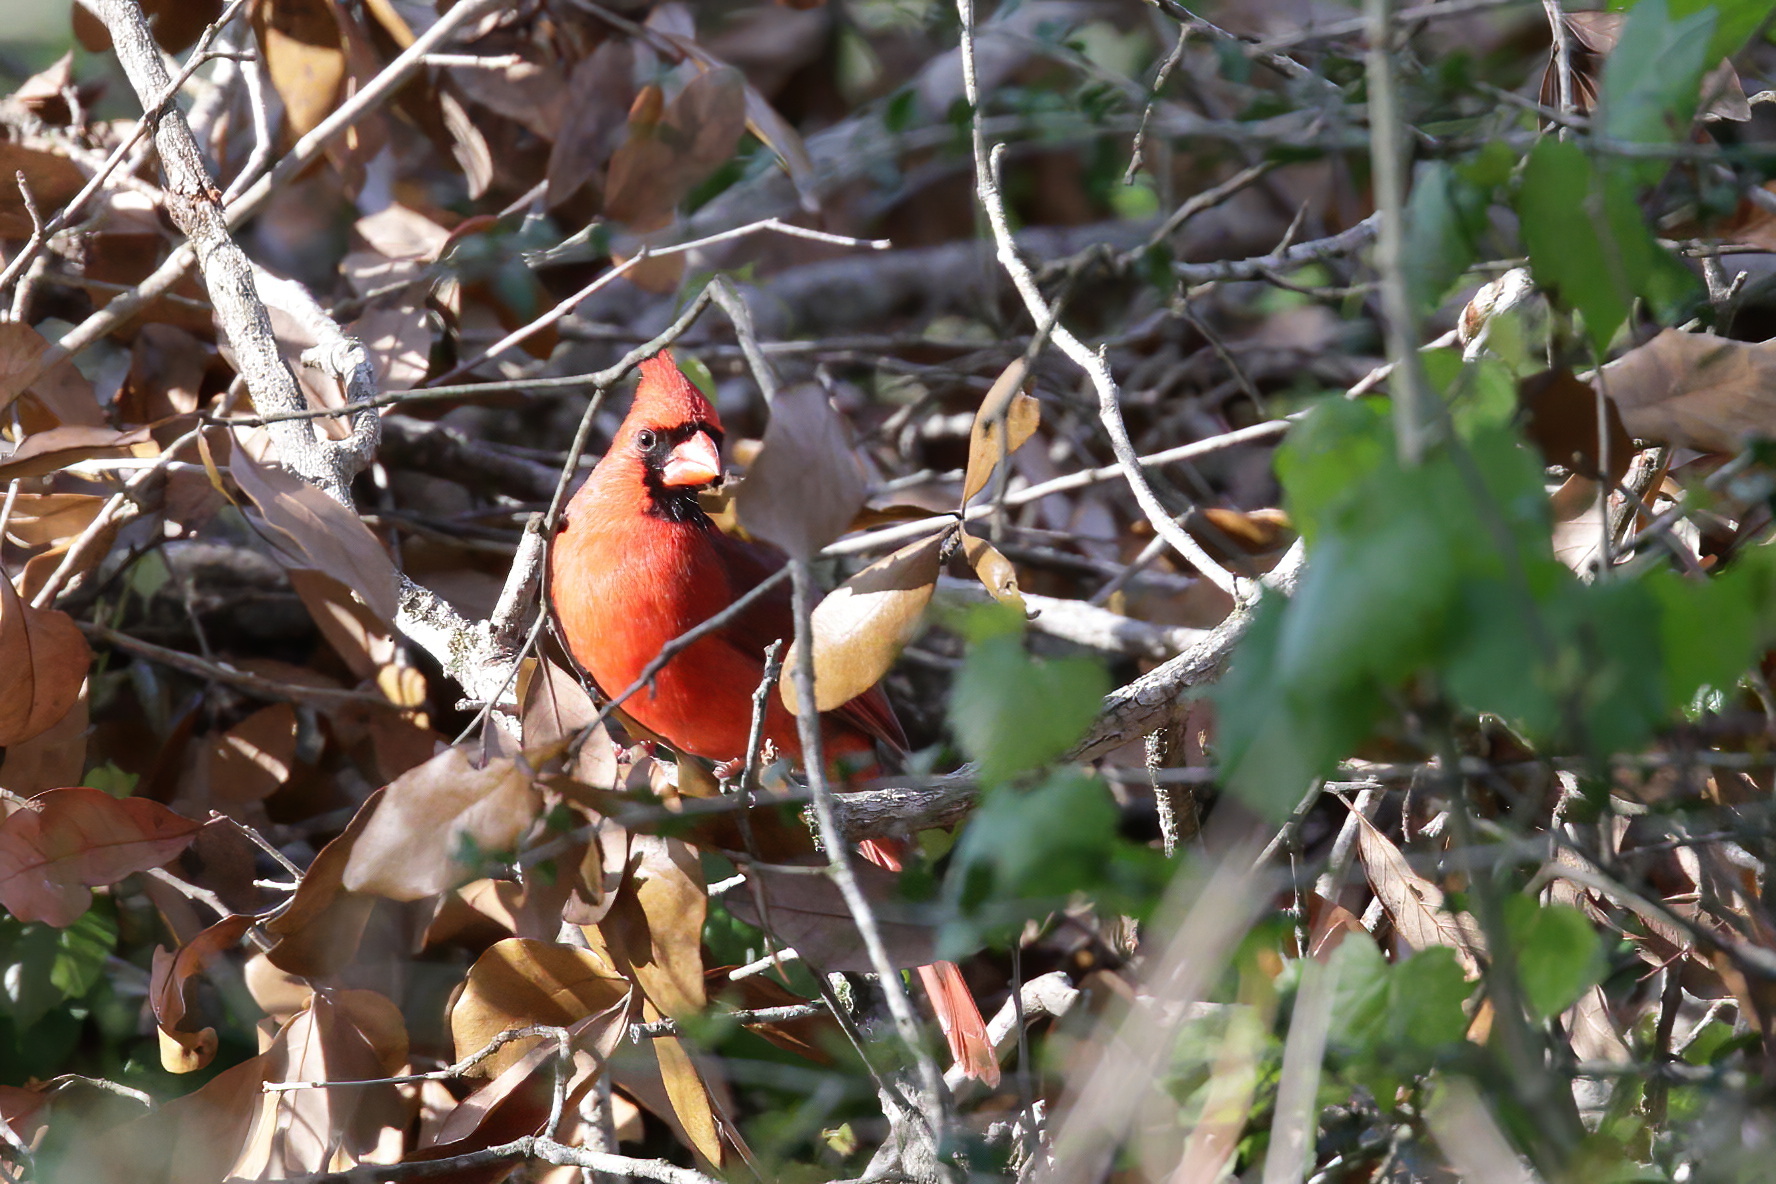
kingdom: Animalia
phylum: Chordata
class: Aves
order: Passeriformes
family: Cardinalidae
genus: Cardinalis
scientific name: Cardinalis cardinalis
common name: Northern cardinal
